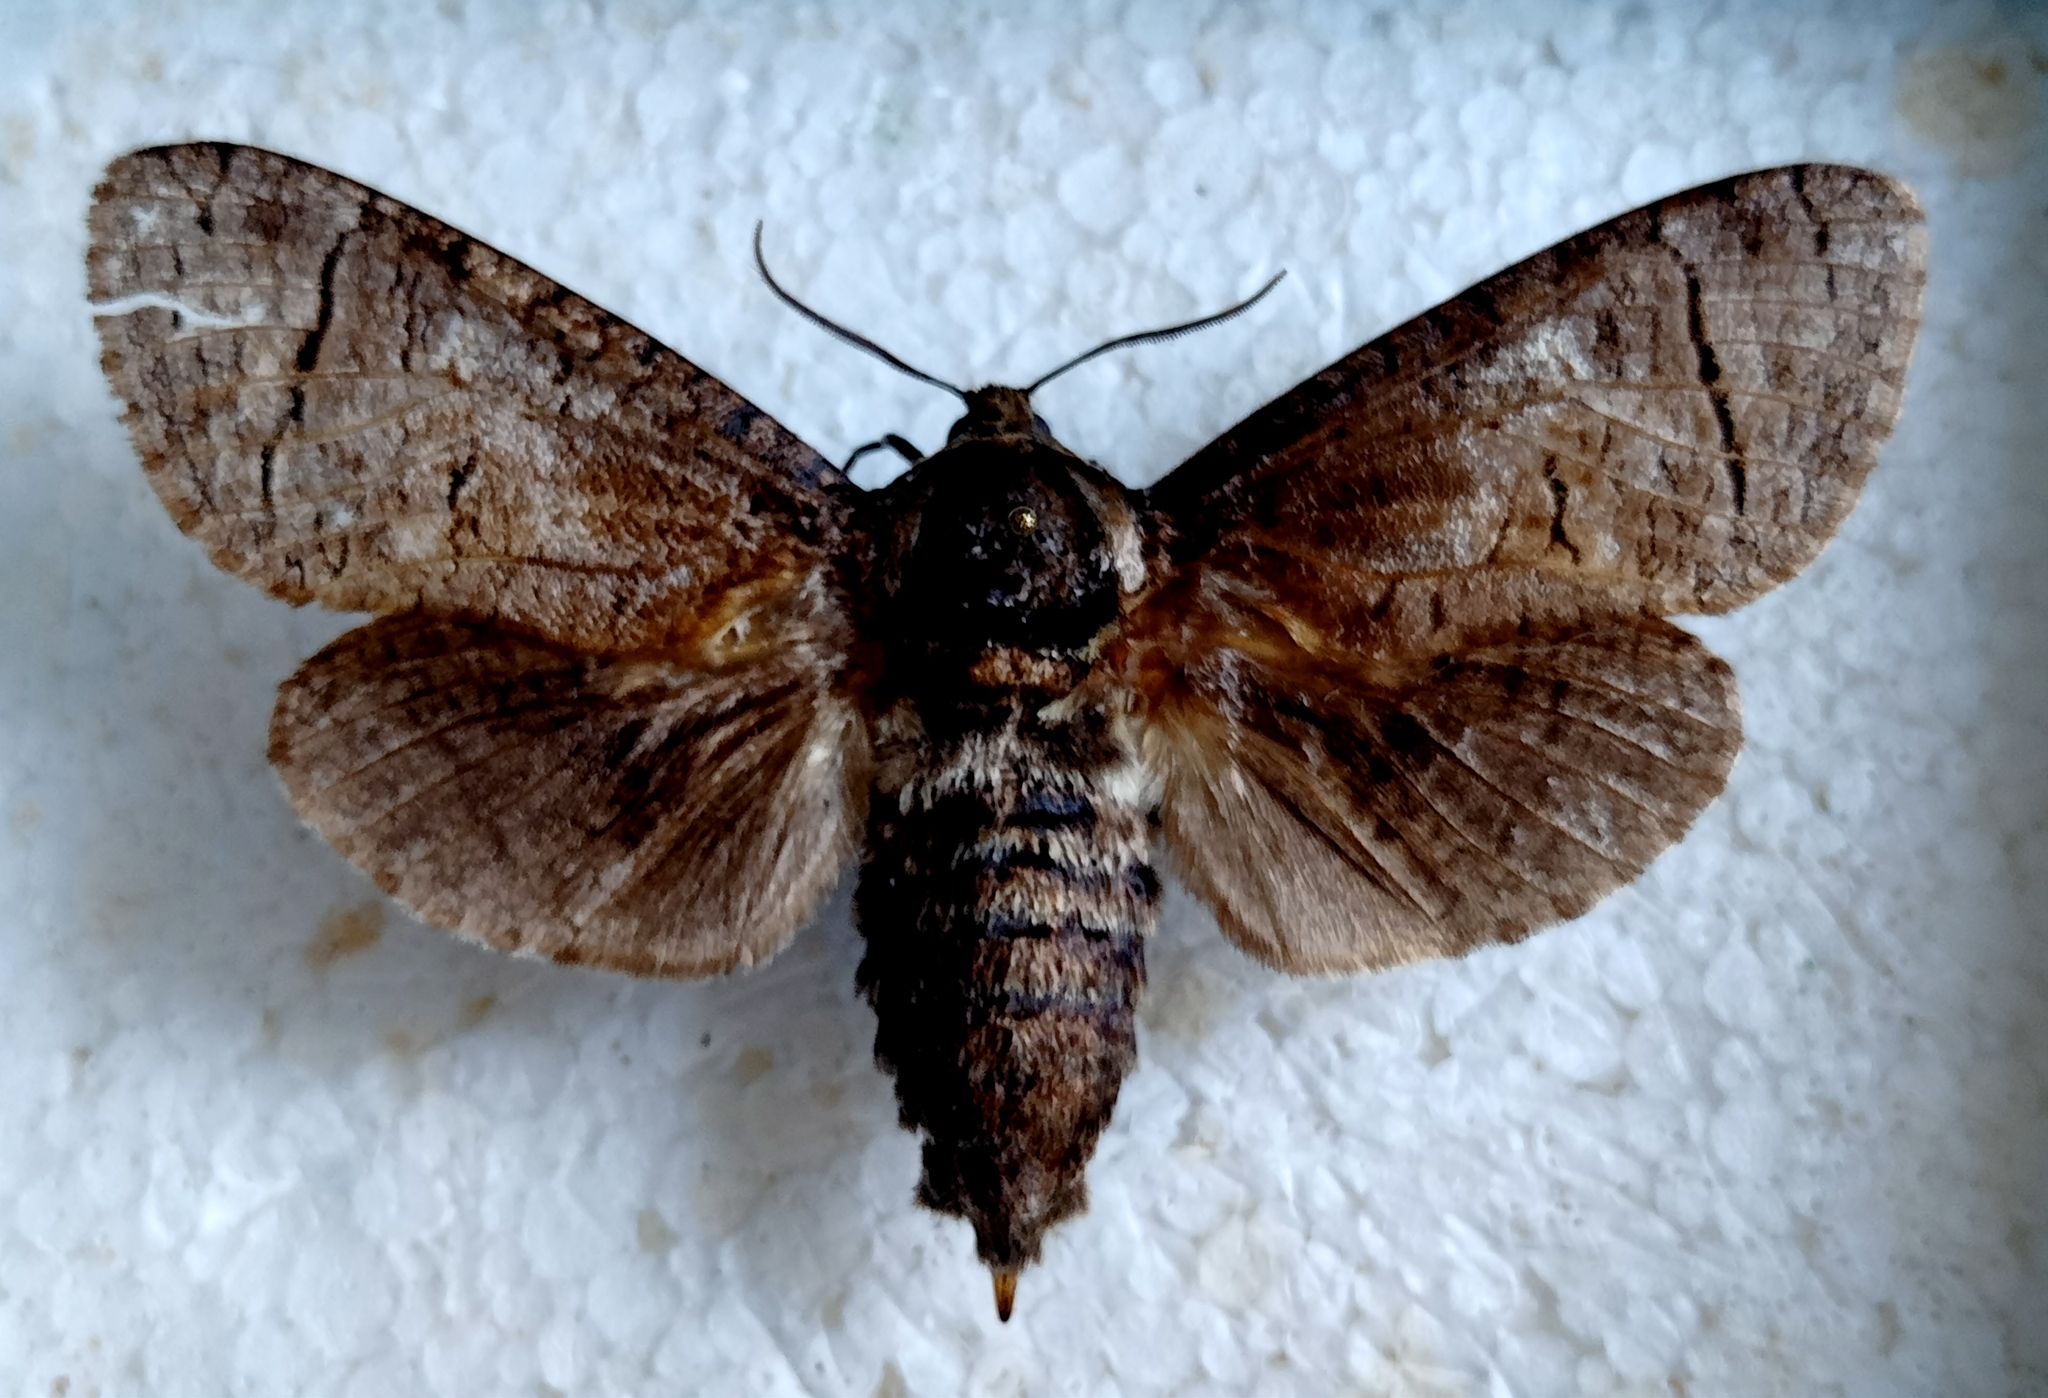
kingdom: Animalia
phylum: Arthropoda
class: Insecta
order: Lepidoptera
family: Cossidae
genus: Cossus
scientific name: Cossus cossus
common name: Goat moth
